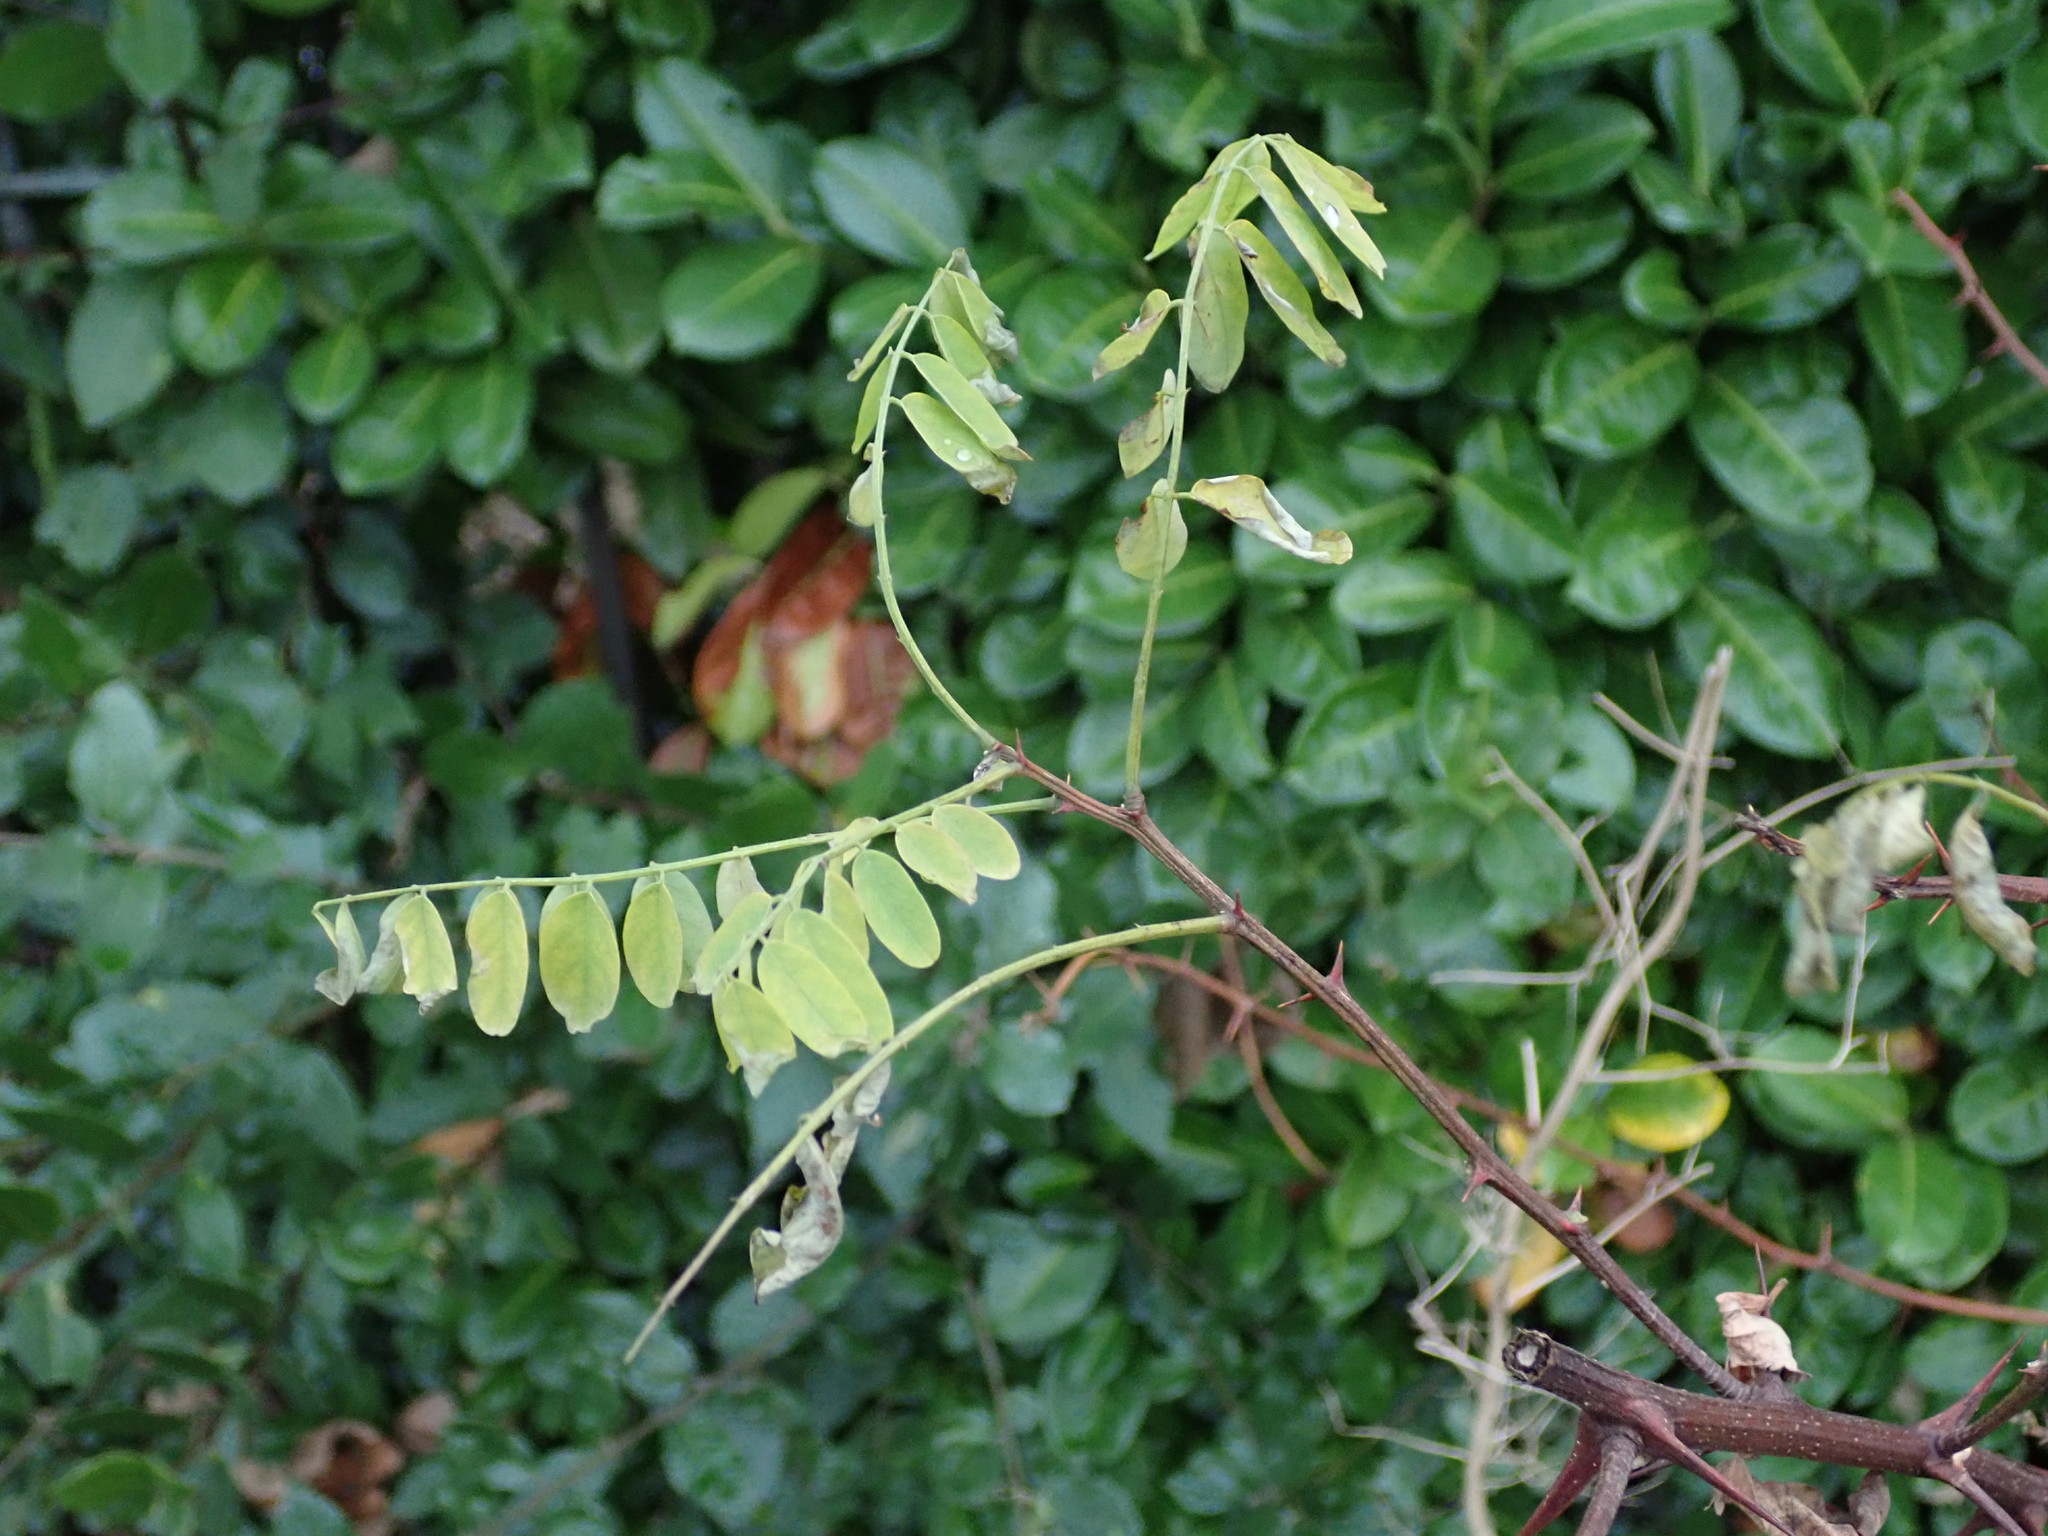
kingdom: Plantae
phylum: Tracheophyta
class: Magnoliopsida
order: Fabales
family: Fabaceae
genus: Robinia
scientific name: Robinia pseudoacacia
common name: Black locust
